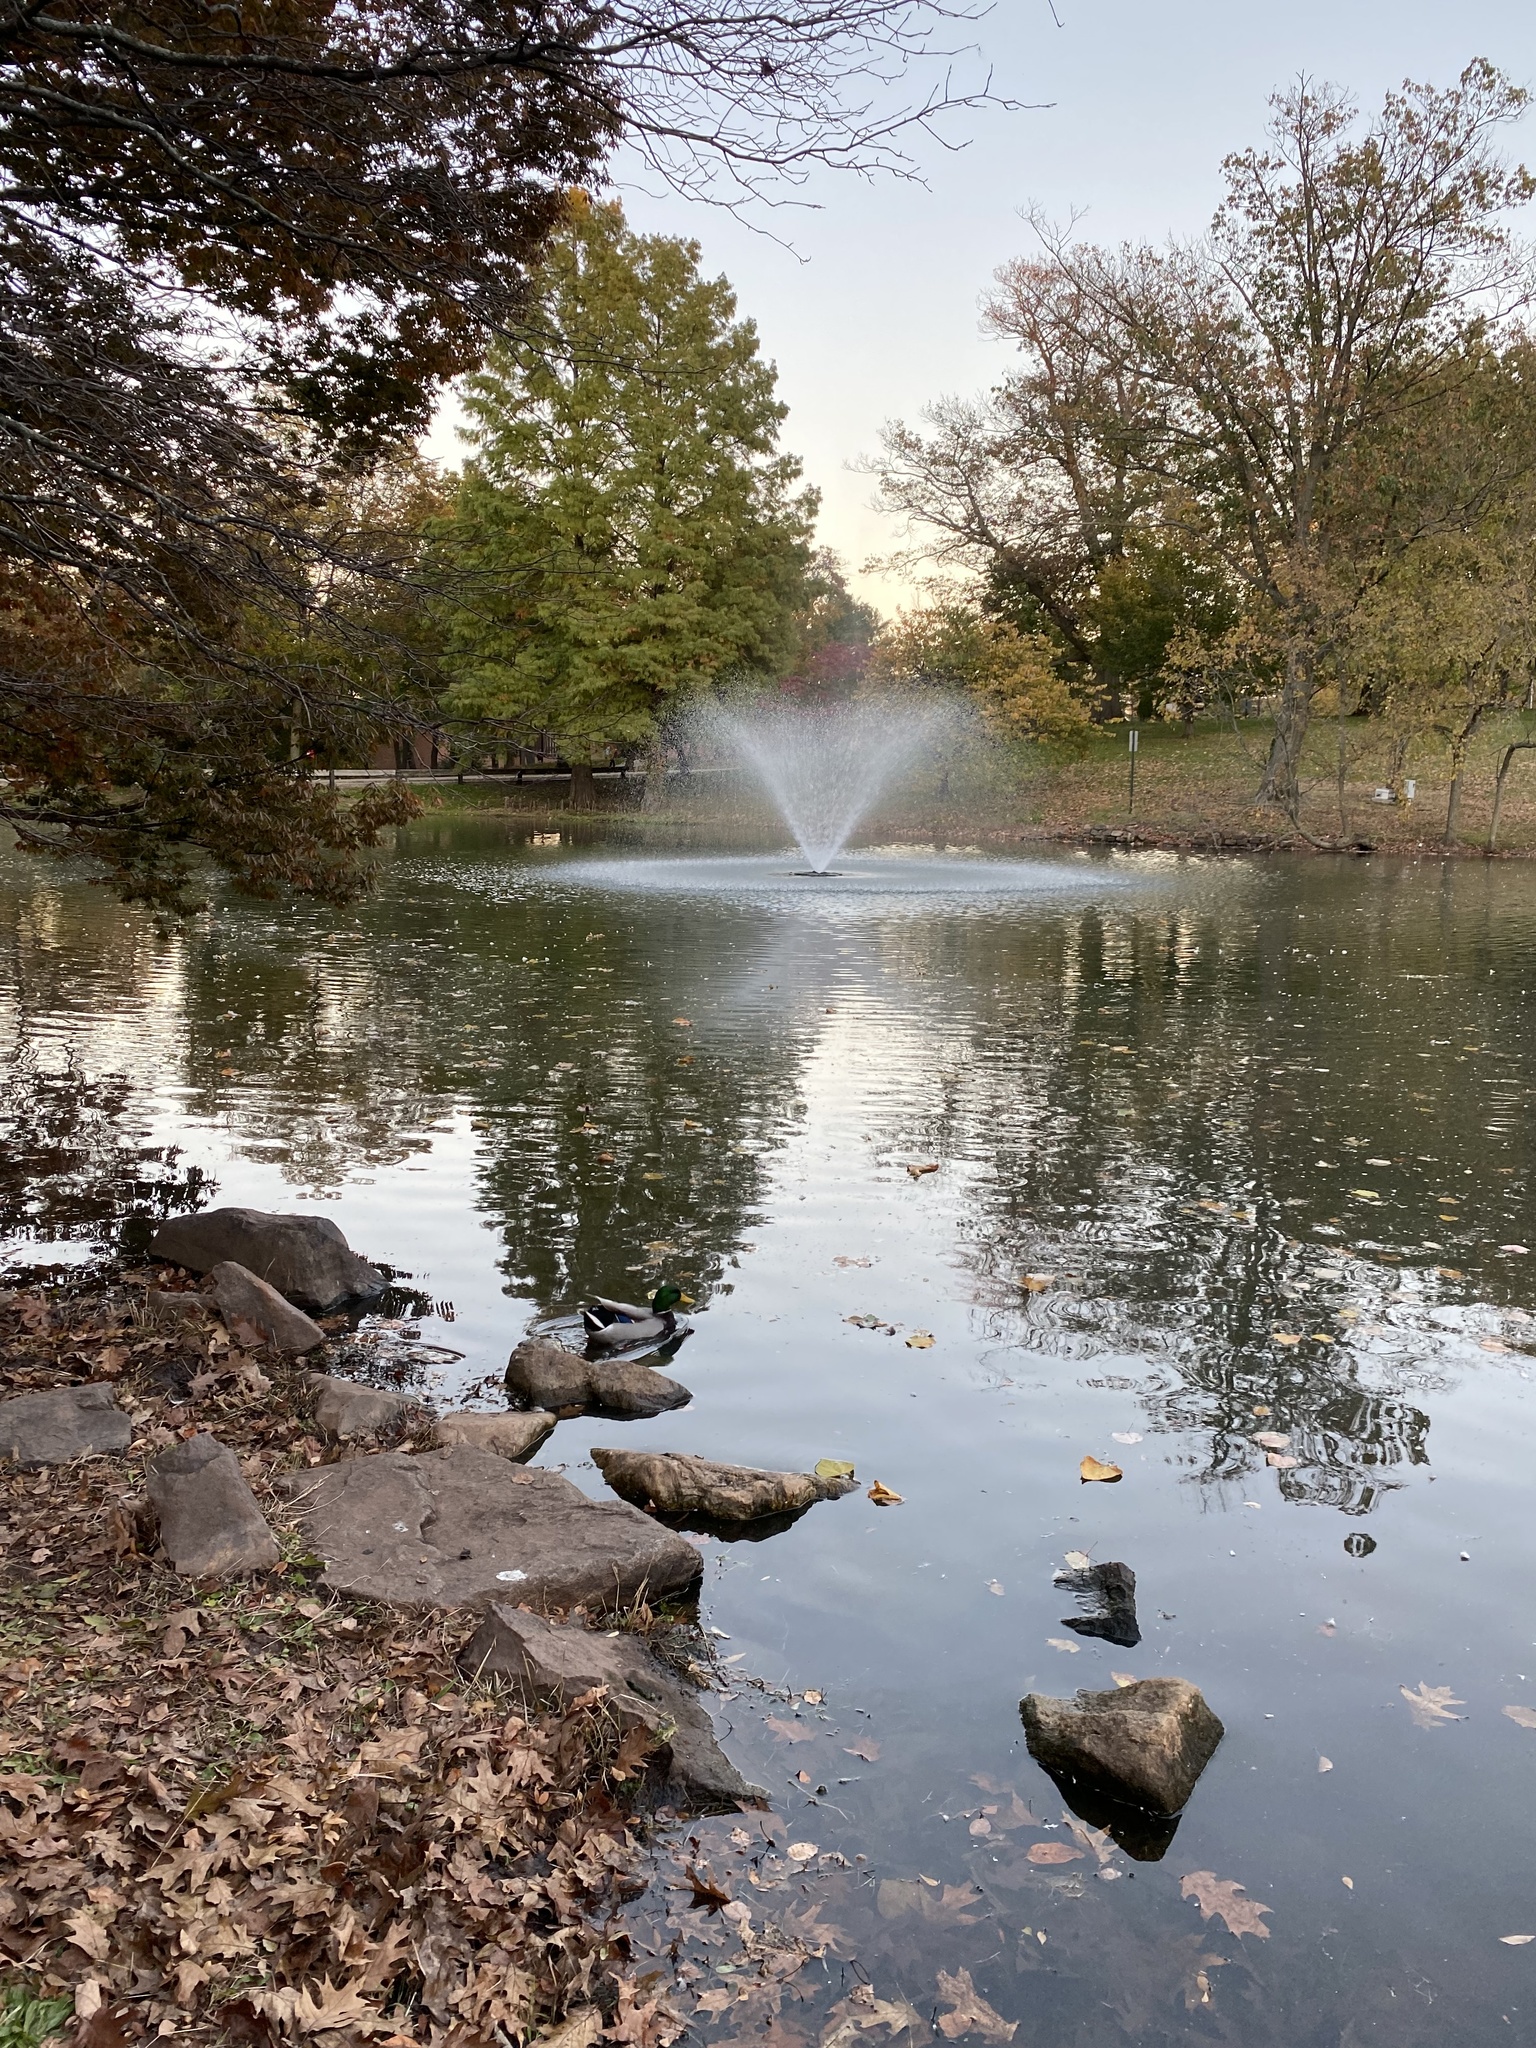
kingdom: Animalia
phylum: Chordata
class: Aves
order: Anseriformes
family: Anatidae
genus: Anas
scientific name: Anas platyrhynchos
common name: Mallard
